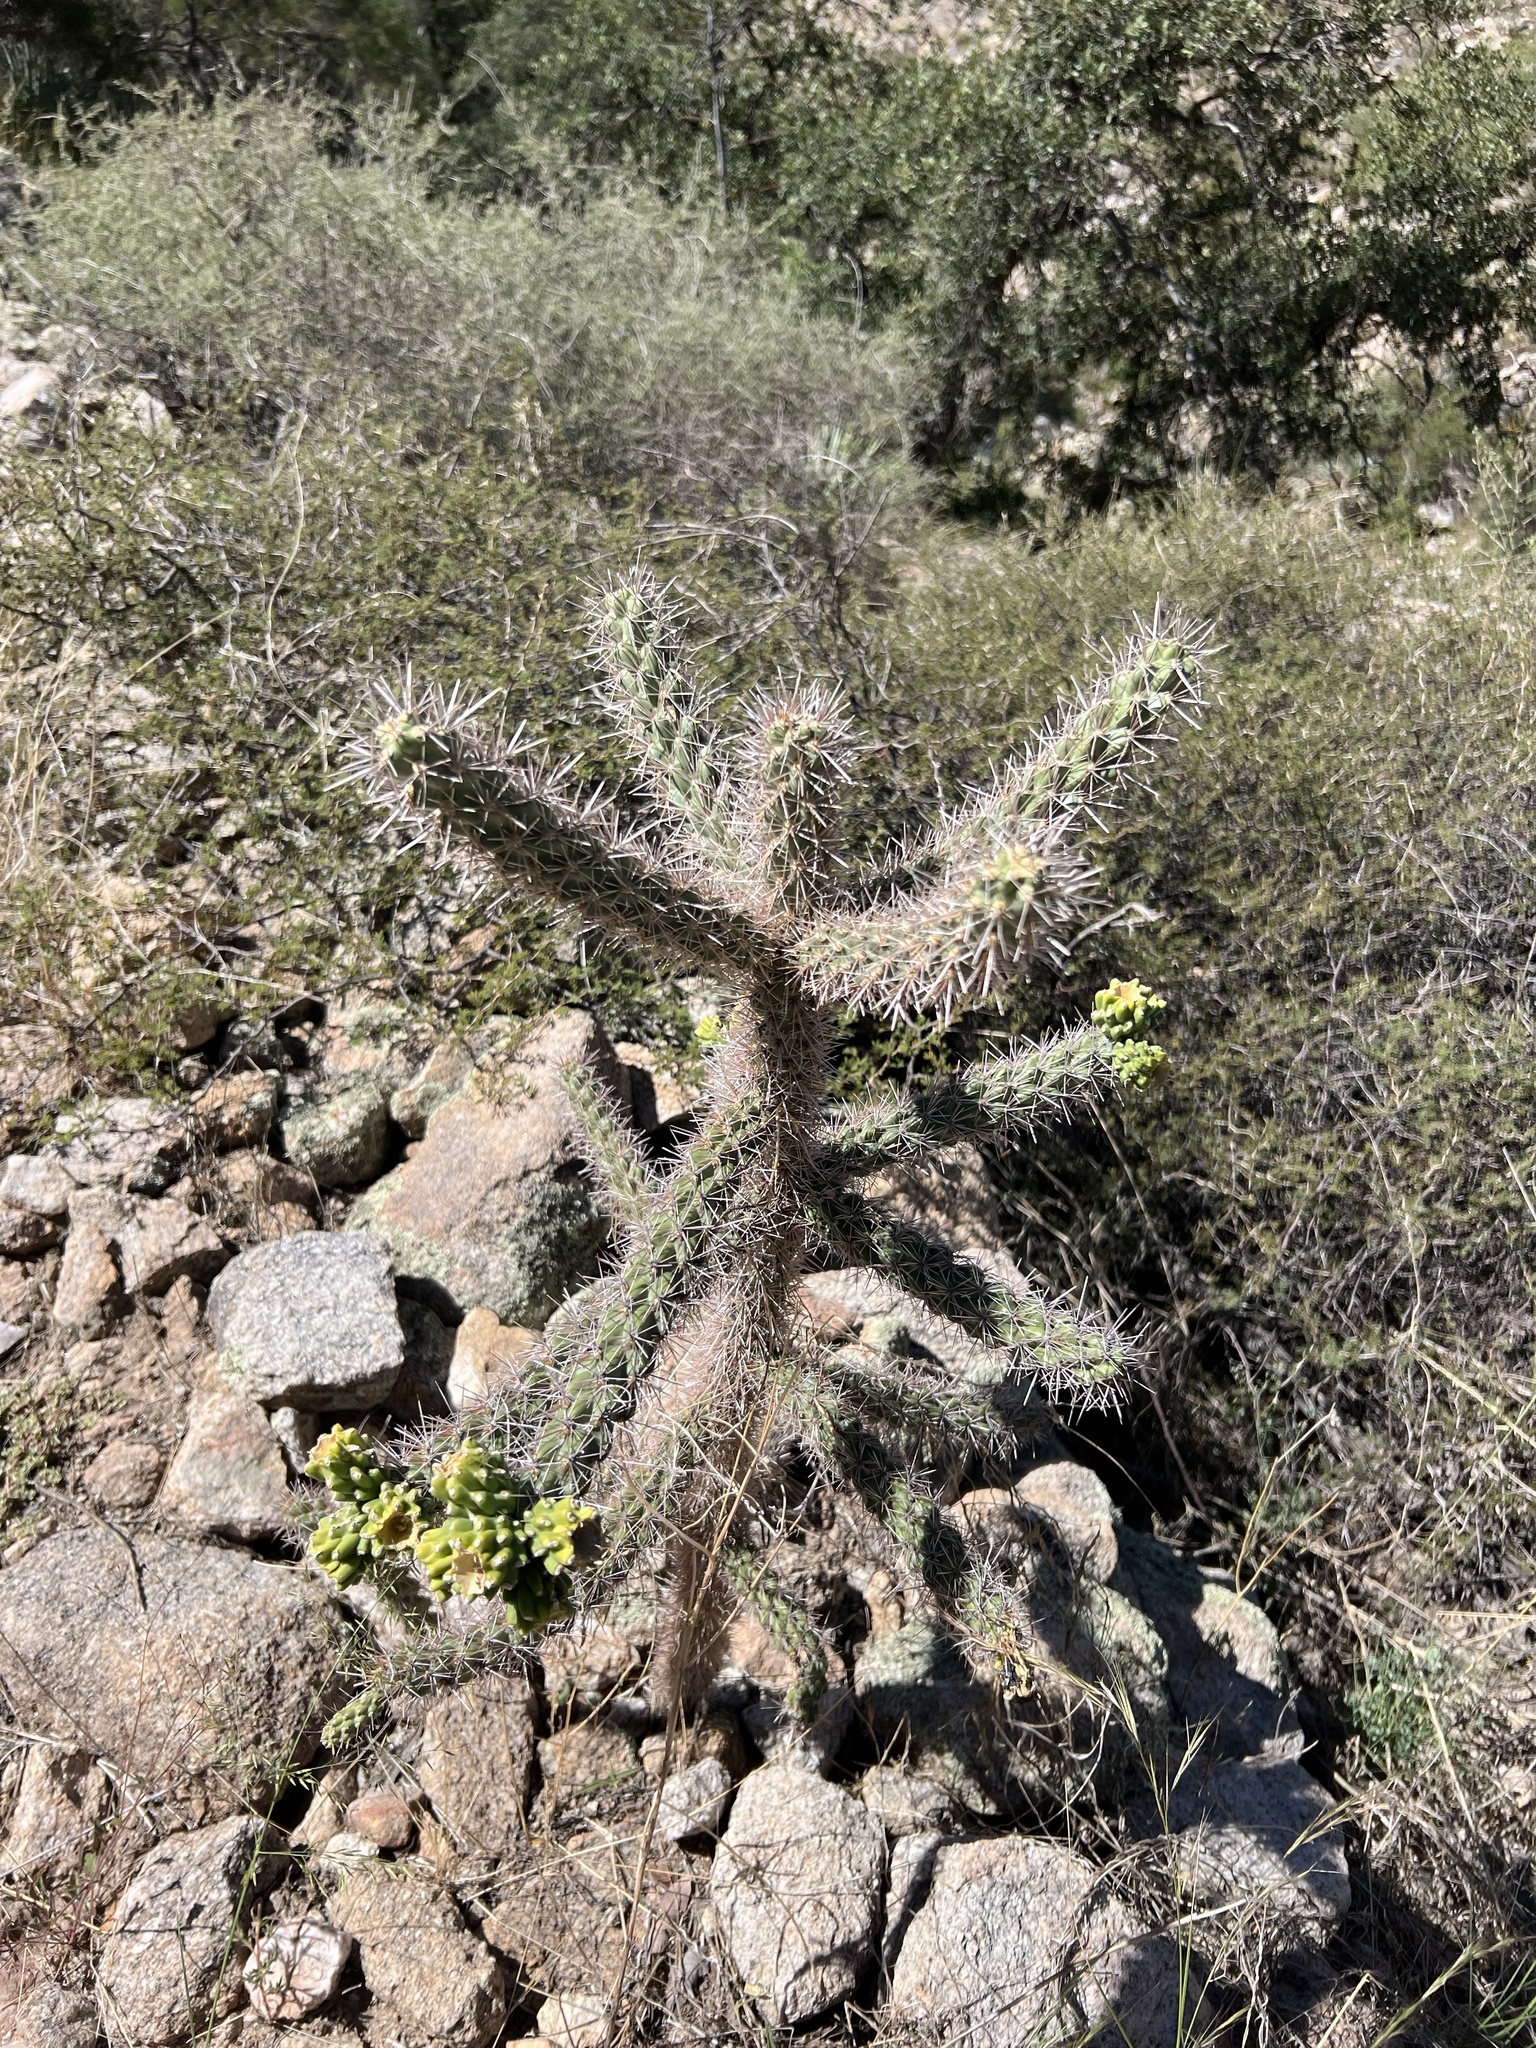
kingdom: Plantae
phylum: Tracheophyta
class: Magnoliopsida
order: Caryophyllales
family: Cactaceae
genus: Cylindropuntia
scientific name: Cylindropuntia imbricata
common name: Candelabrum cactus
